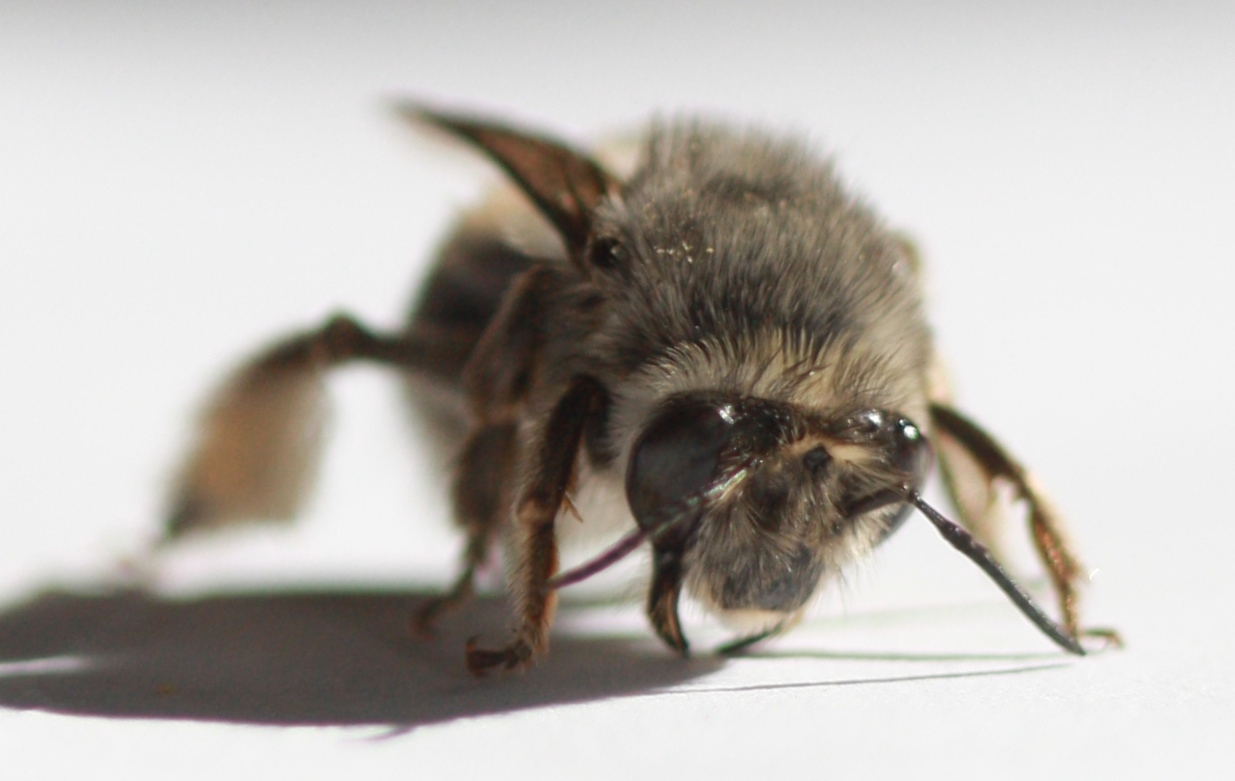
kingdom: Animalia
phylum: Arthropoda
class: Insecta
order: Hymenoptera
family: Apidae
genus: Habropoda
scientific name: Habropoda depressa
